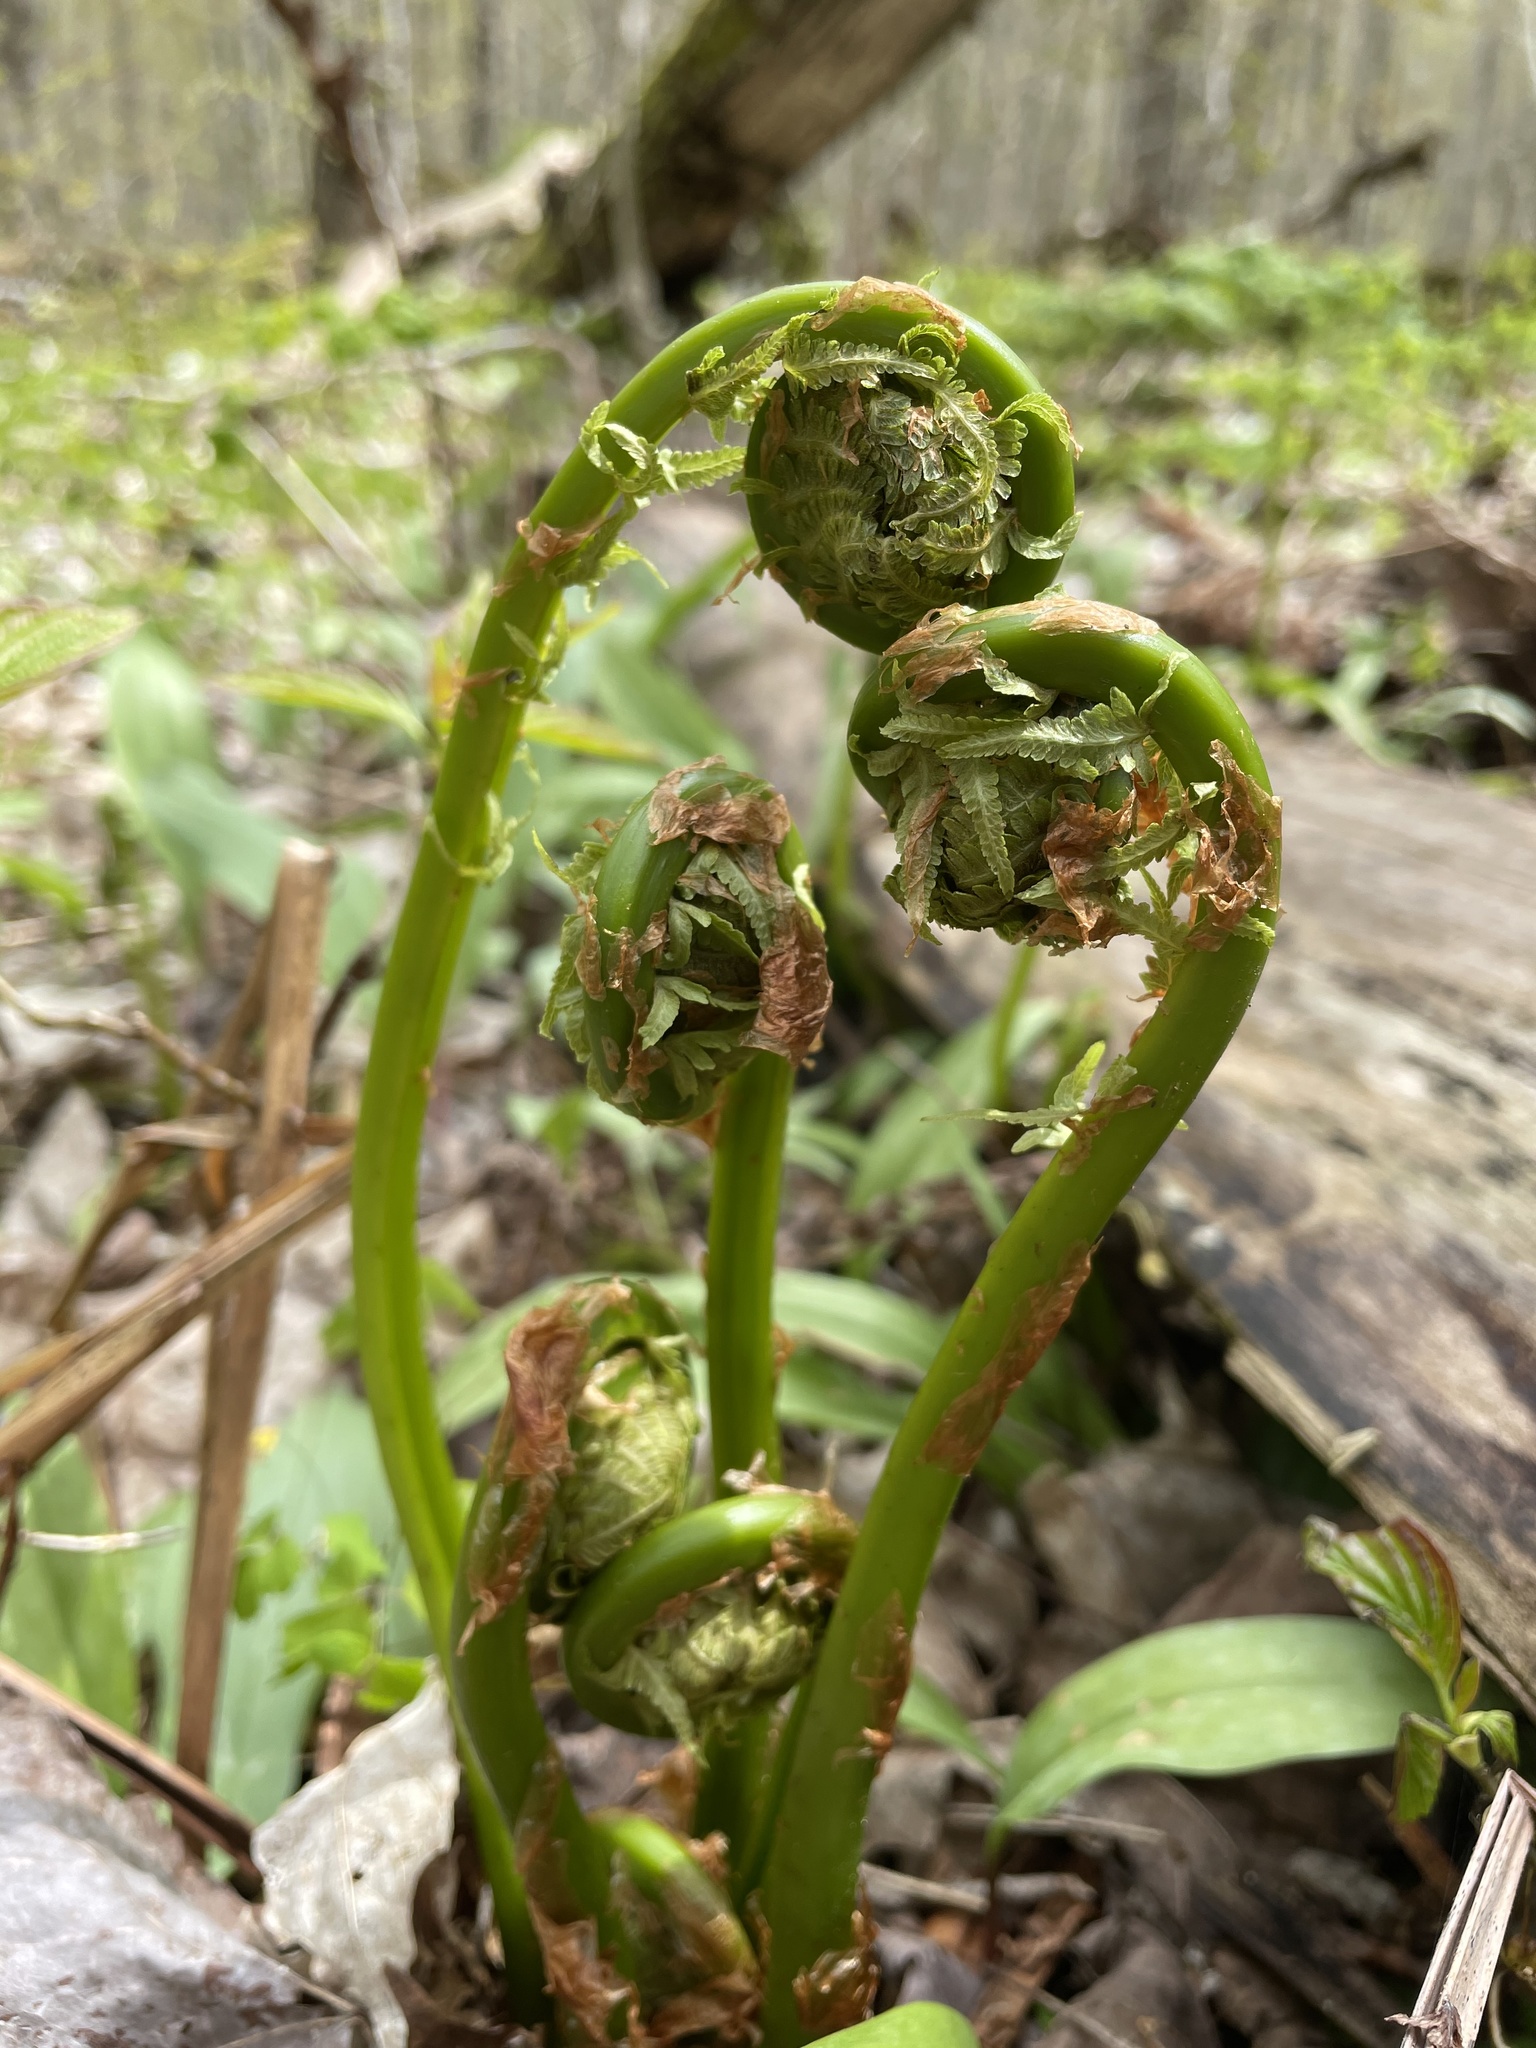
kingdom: Plantae
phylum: Tracheophyta
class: Polypodiopsida
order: Polypodiales
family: Onocleaceae
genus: Matteuccia
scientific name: Matteuccia struthiopteris
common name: Ostrich fern
